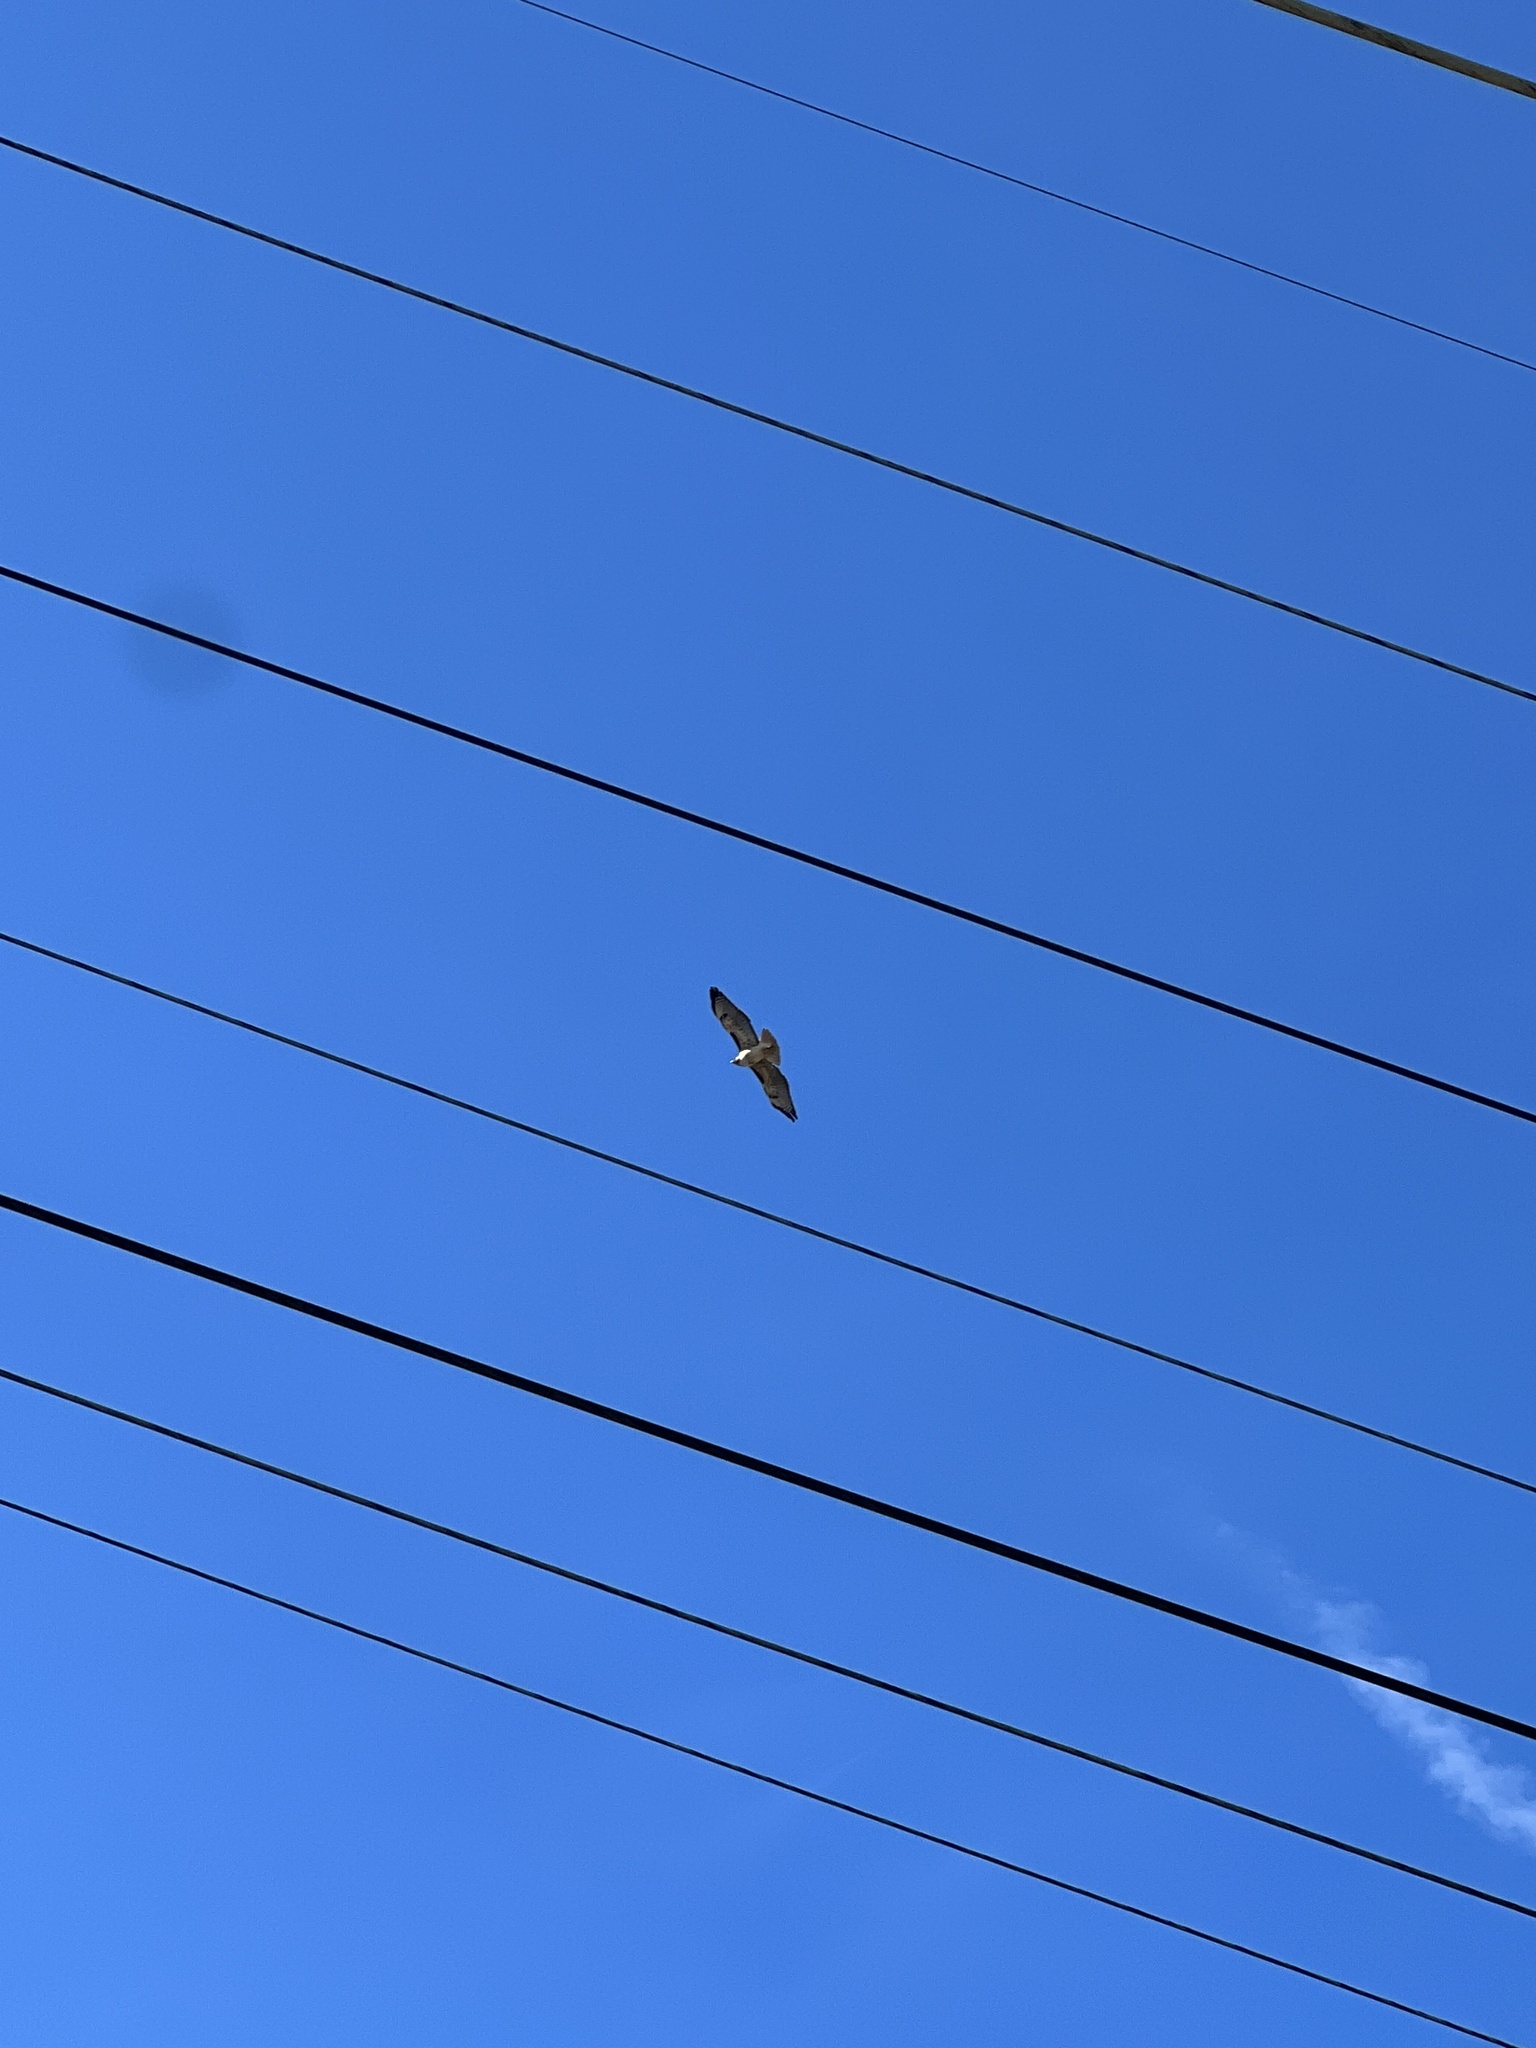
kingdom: Animalia
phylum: Chordata
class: Aves
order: Accipitriformes
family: Accipitridae
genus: Buteo
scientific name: Buteo jamaicensis
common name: Red-tailed hawk
